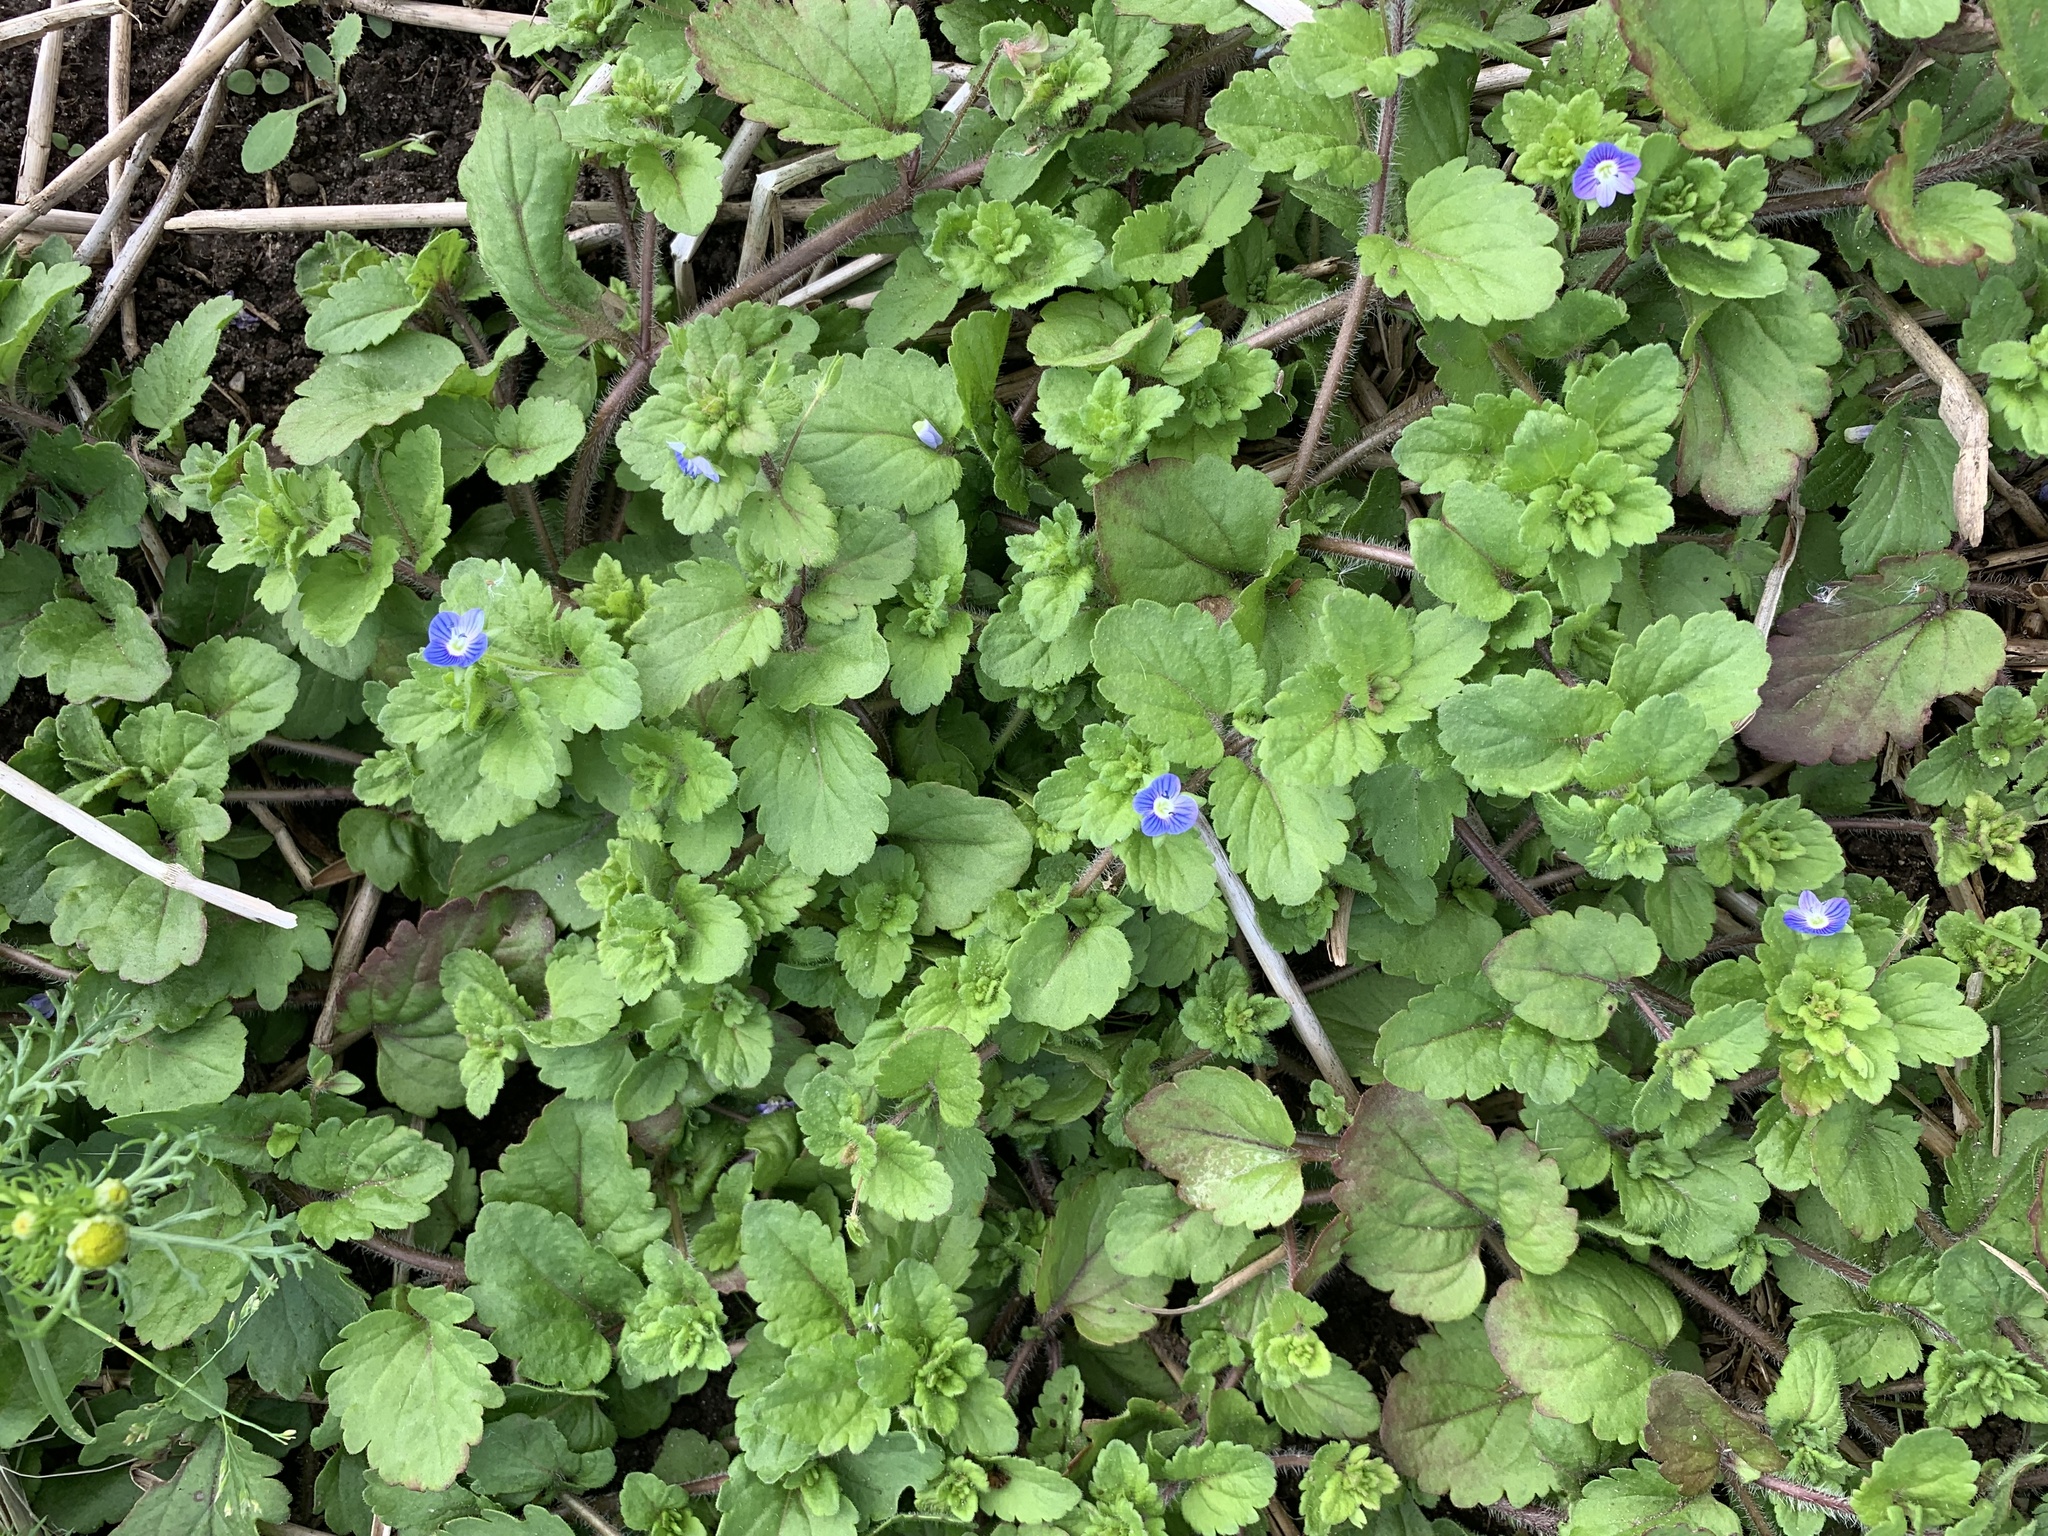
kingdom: Plantae
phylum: Tracheophyta
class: Magnoliopsida
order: Lamiales
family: Plantaginaceae
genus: Veronica
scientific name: Veronica persica
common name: Common field-speedwell
